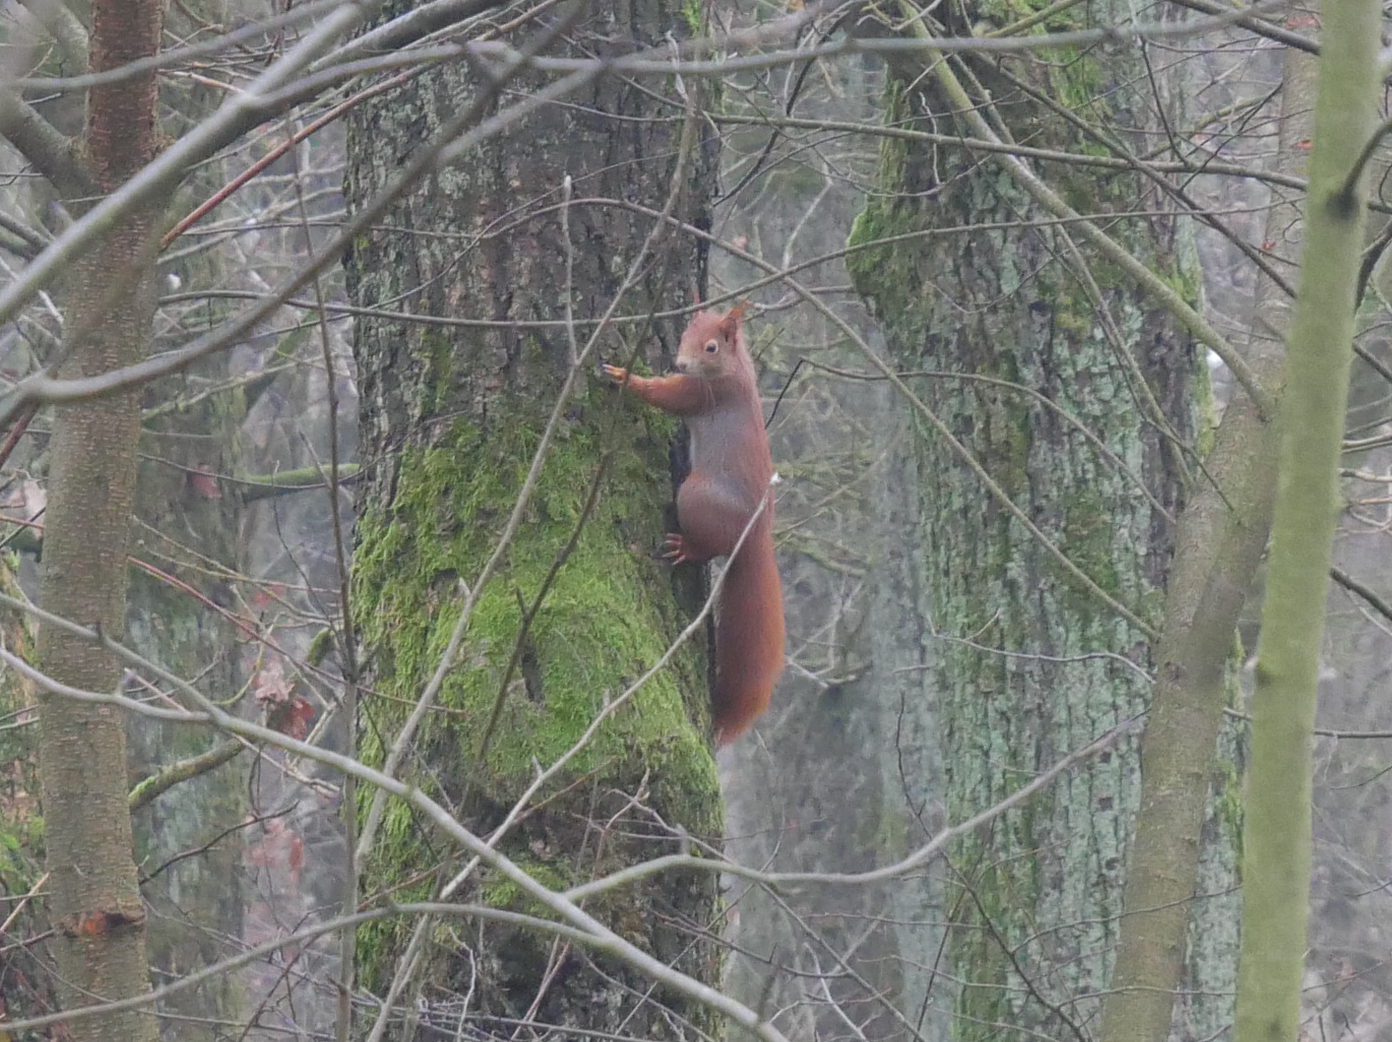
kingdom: Animalia
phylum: Chordata
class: Mammalia
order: Rodentia
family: Sciuridae
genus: Sciurus
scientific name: Sciurus vulgaris
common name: Eurasian red squirrel
